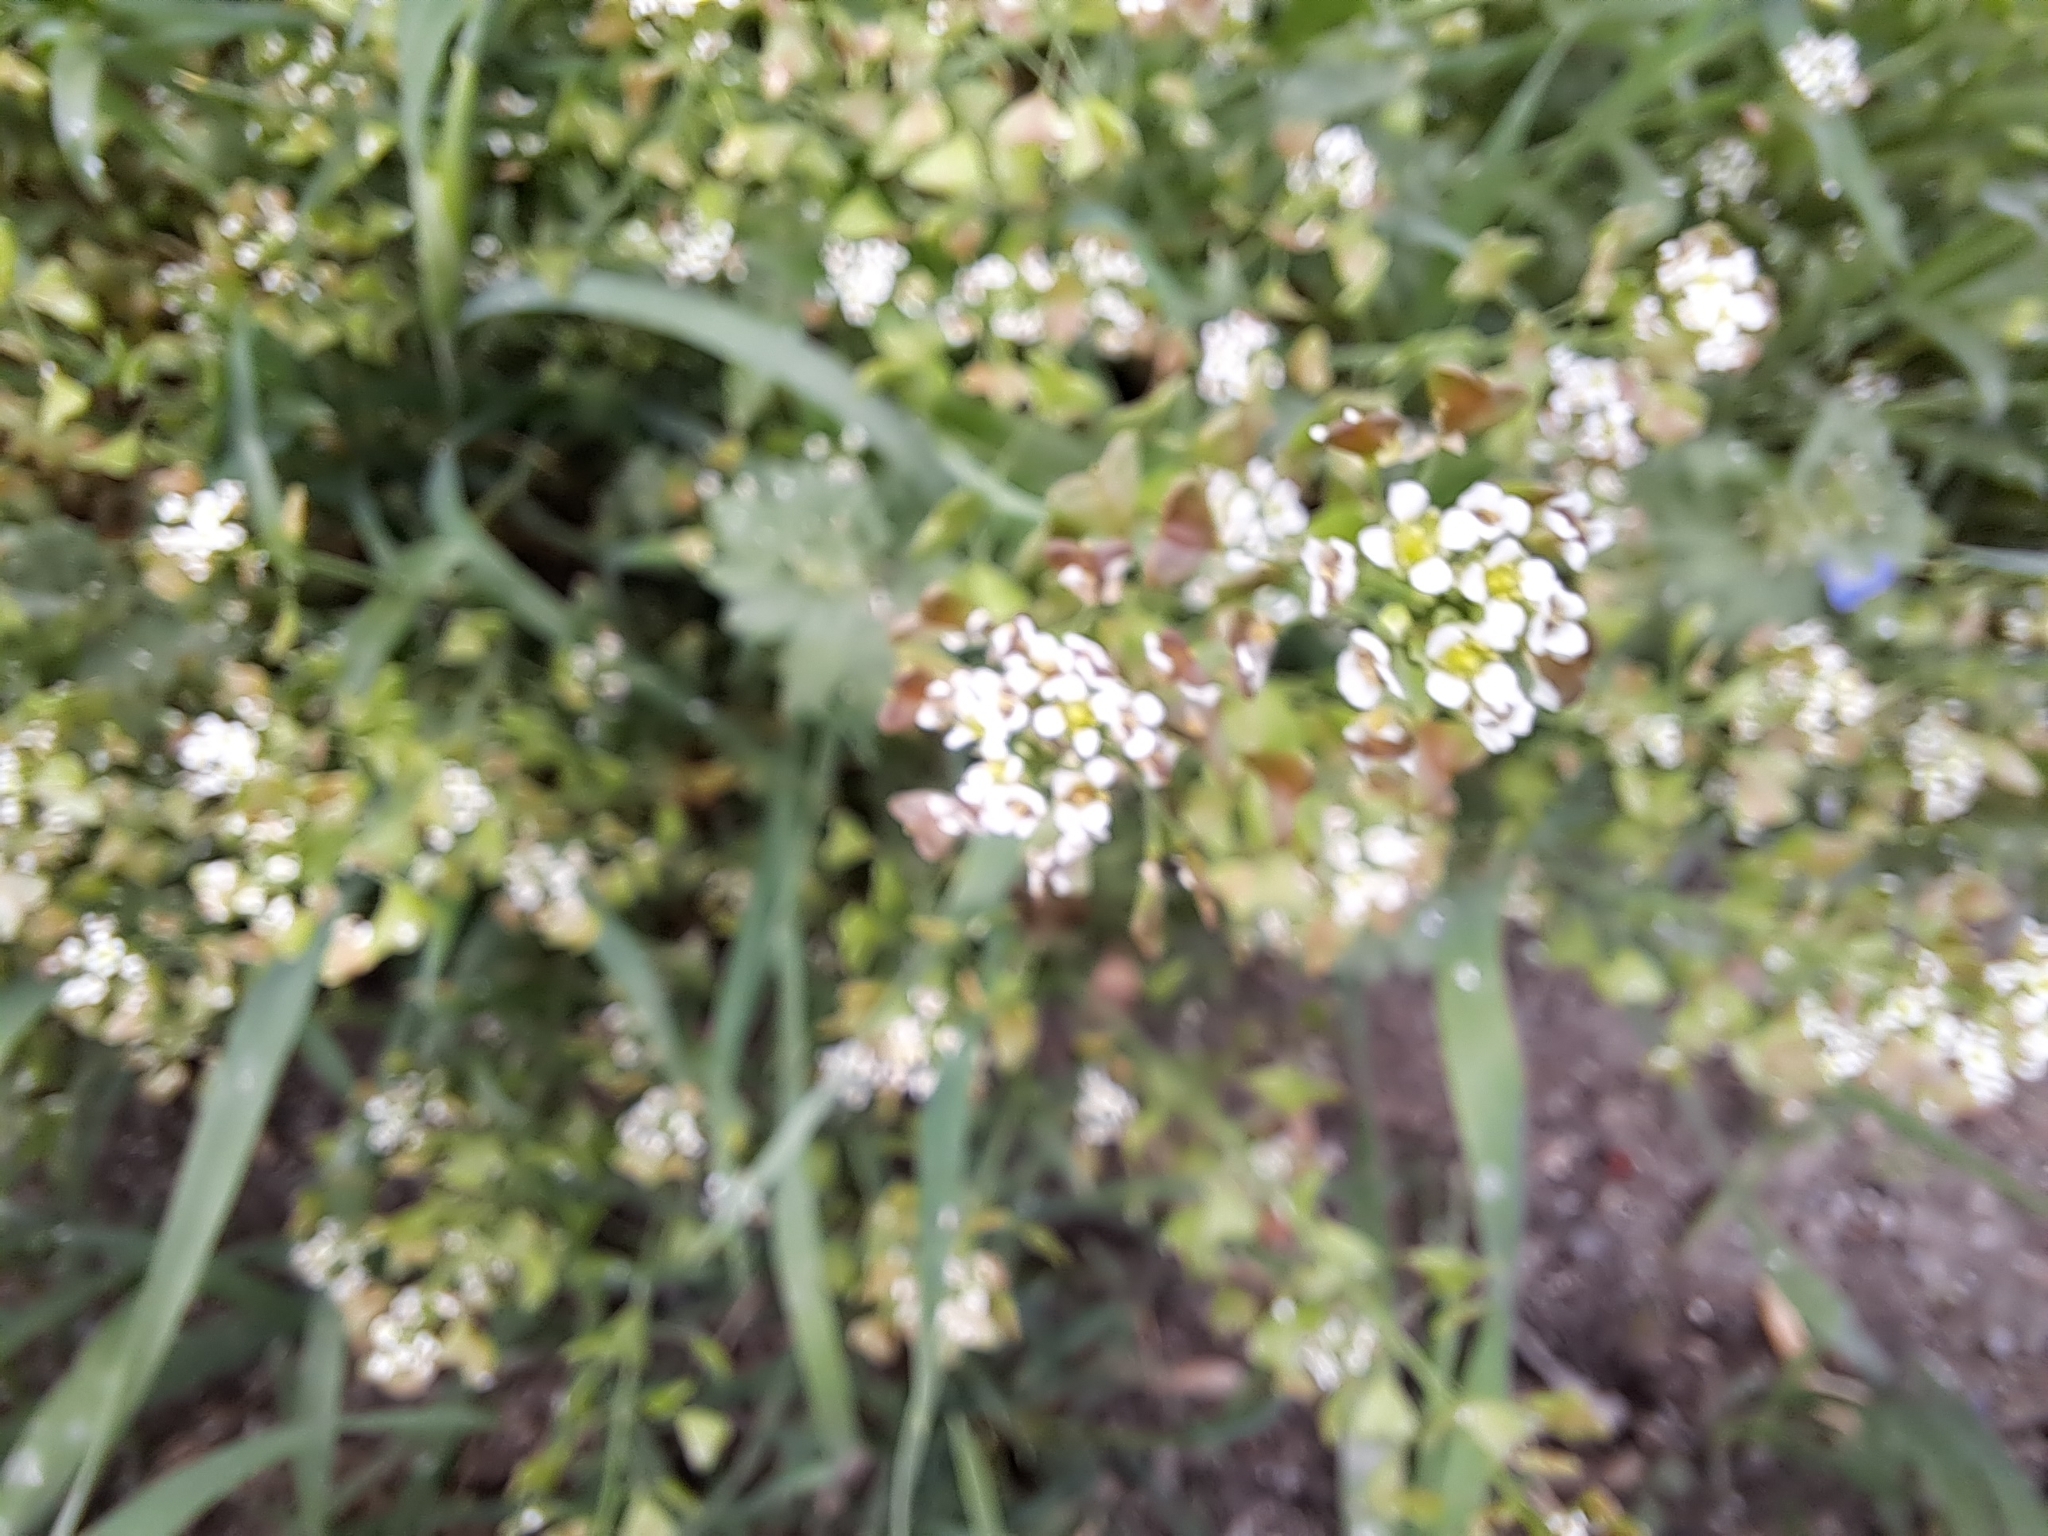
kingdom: Plantae
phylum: Tracheophyta
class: Magnoliopsida
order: Brassicales
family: Brassicaceae
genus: Capsella
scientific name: Capsella bursa-pastoris
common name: Shepherd's purse
